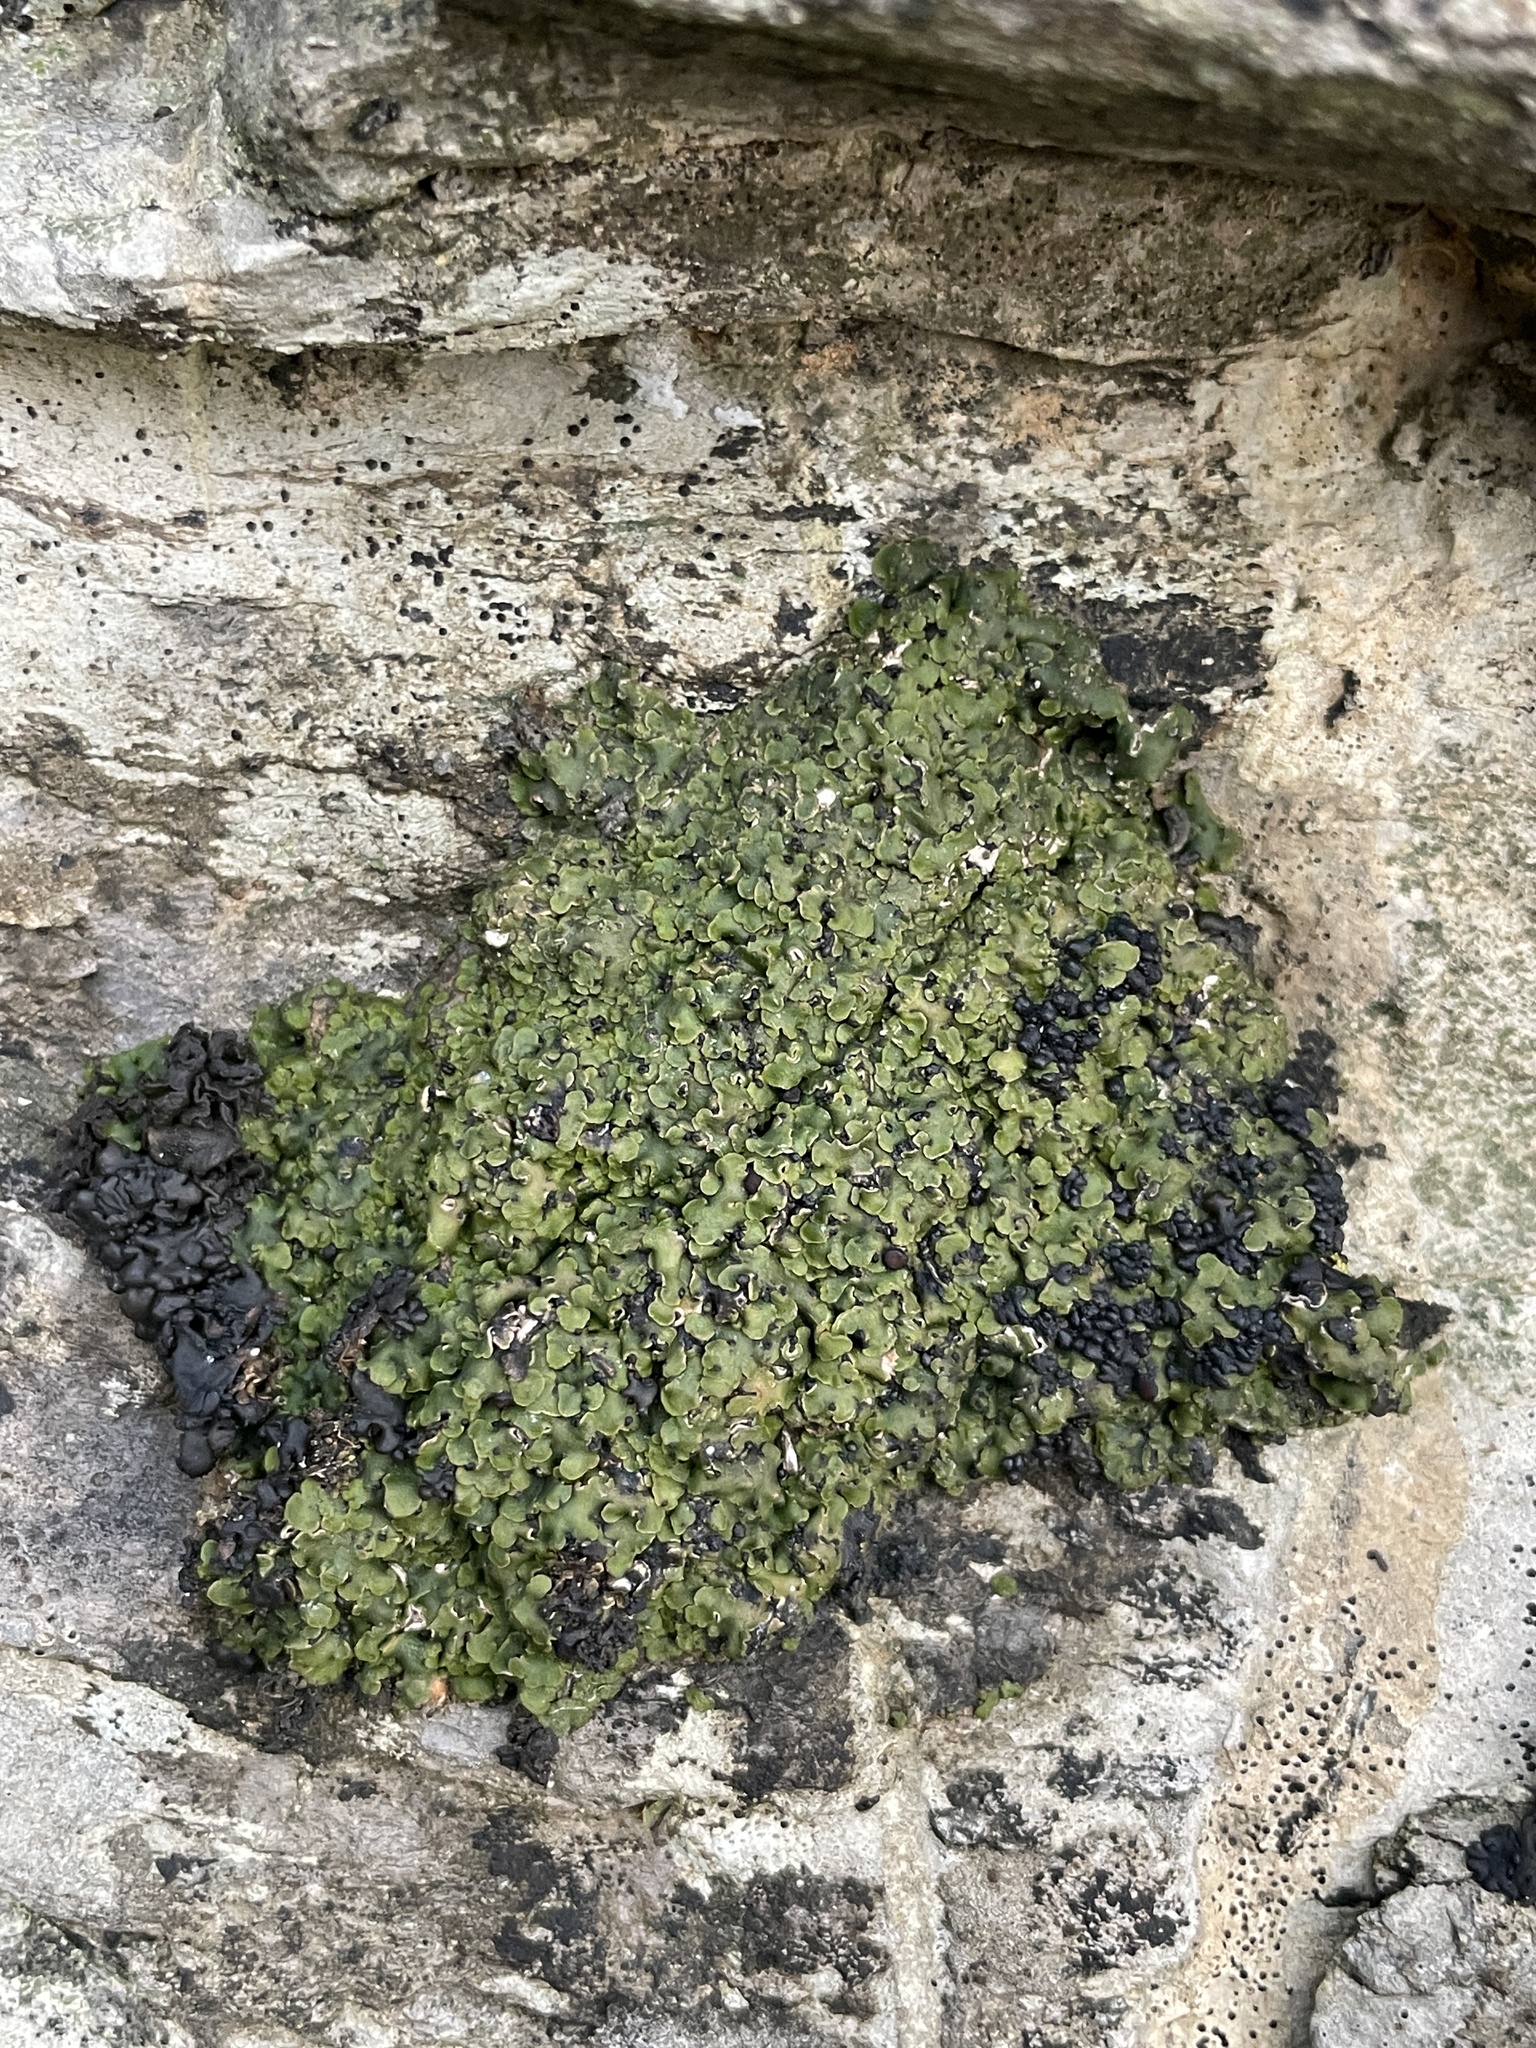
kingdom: Fungi
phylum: Ascomycota
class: Lecanoromycetes
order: Lecanorales
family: Catillariaceae
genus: Solenopsora
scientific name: Solenopsora holophaea
